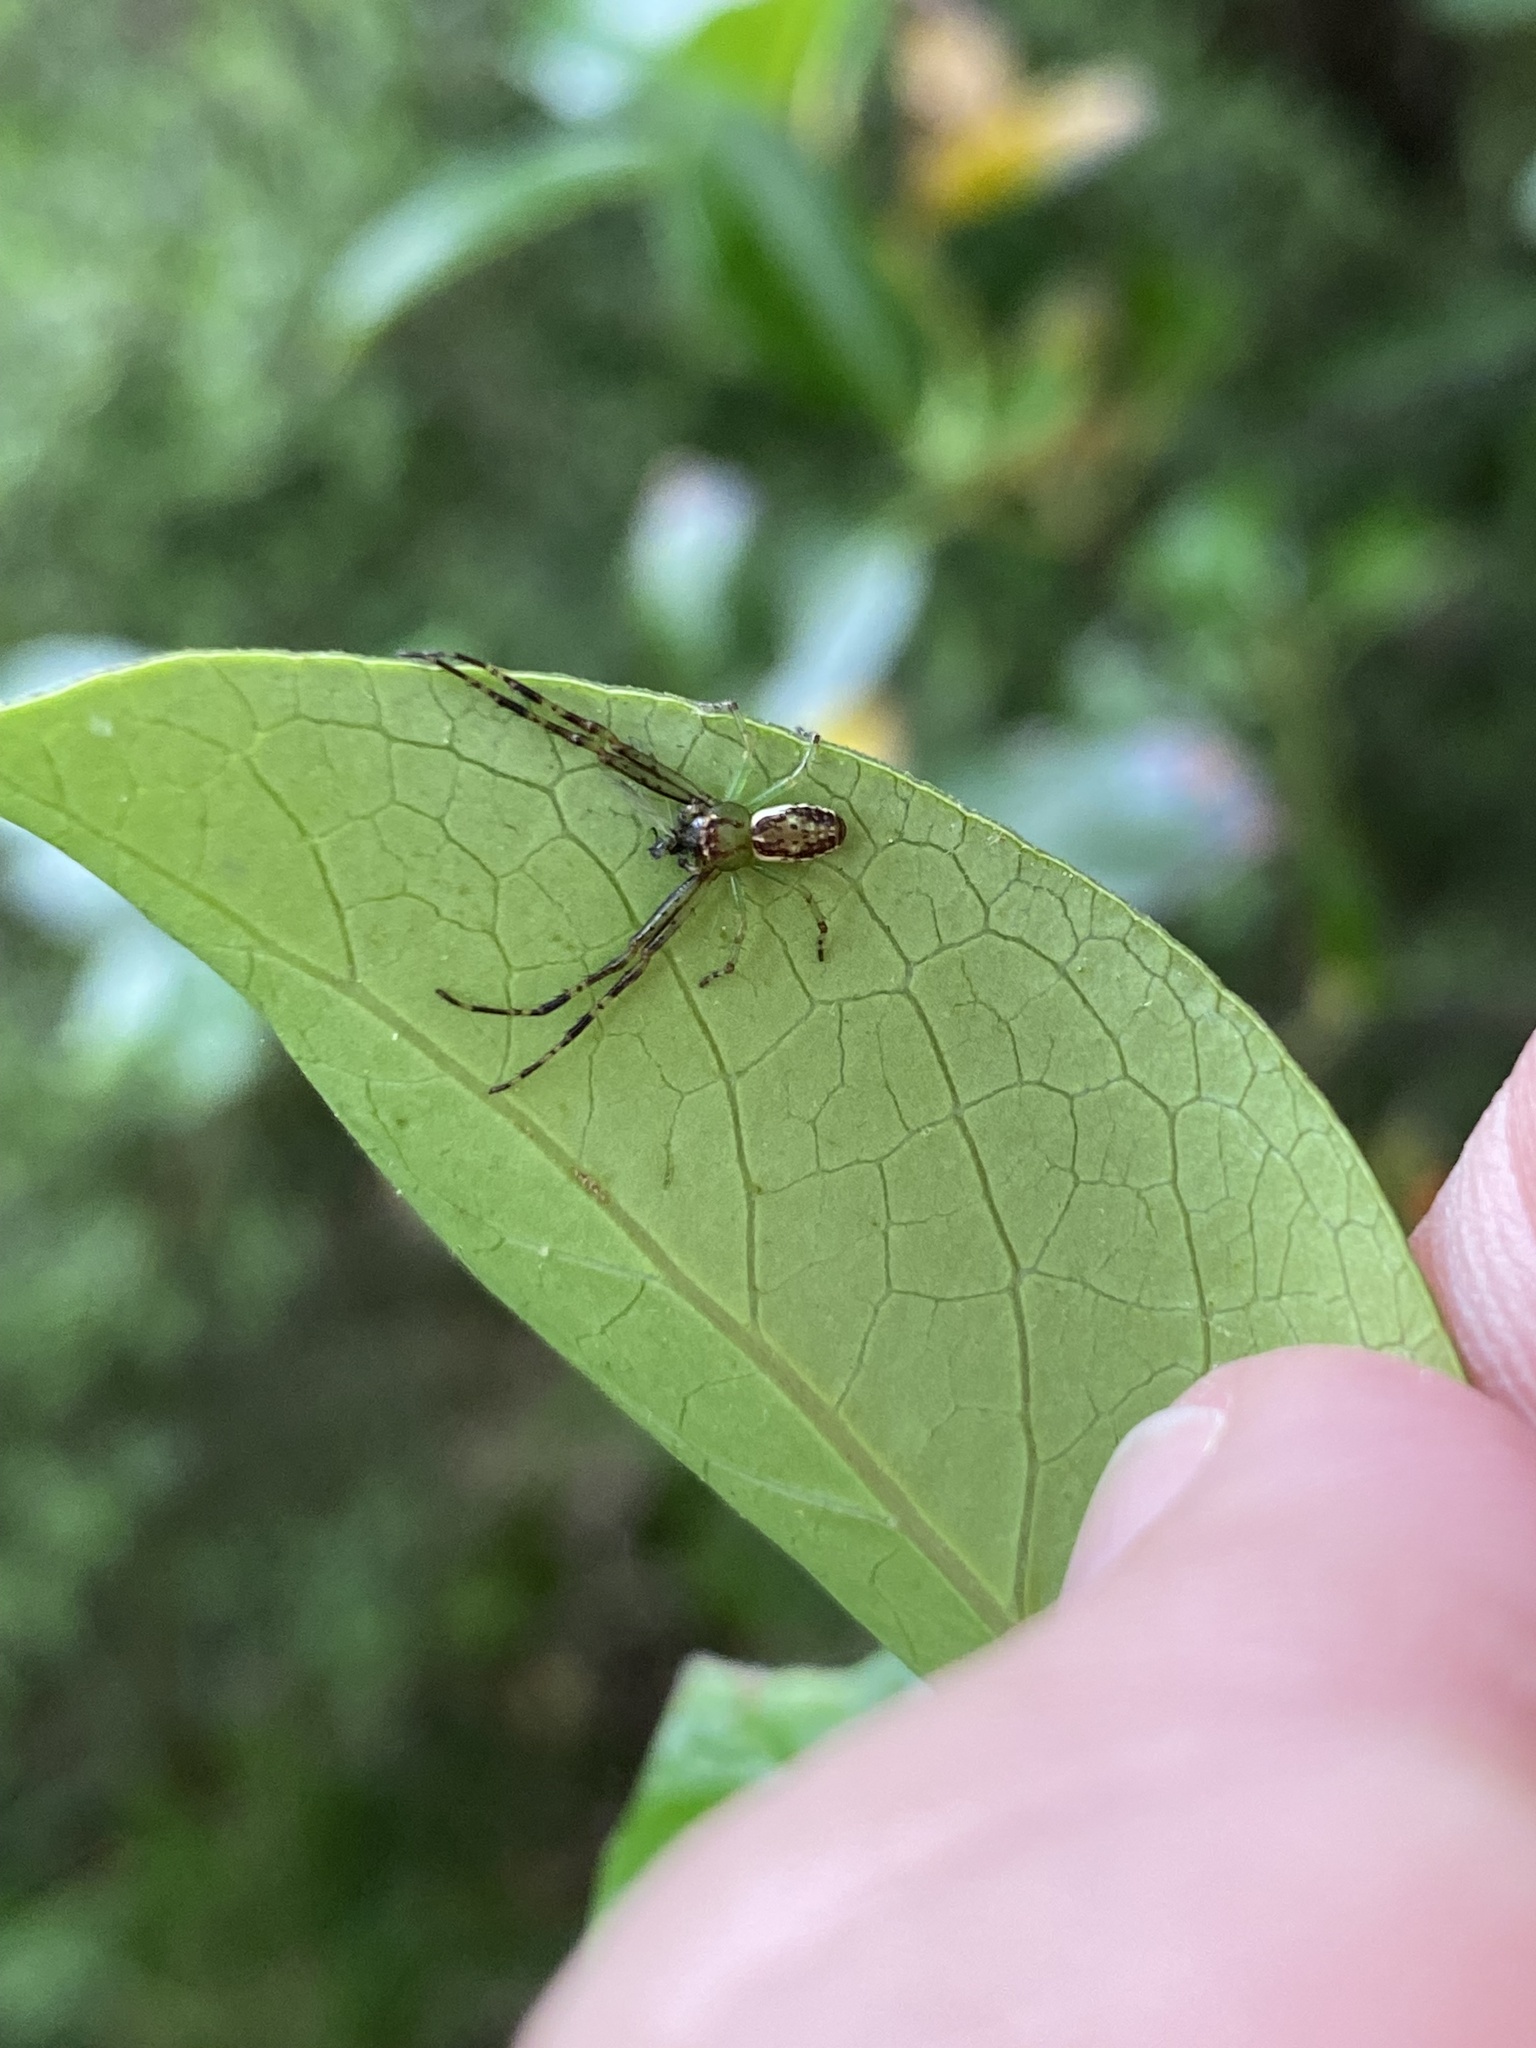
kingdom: Animalia
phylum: Arthropoda
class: Arachnida
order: Araneae
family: Thomisidae
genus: Diaea
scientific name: Diaea ambara
